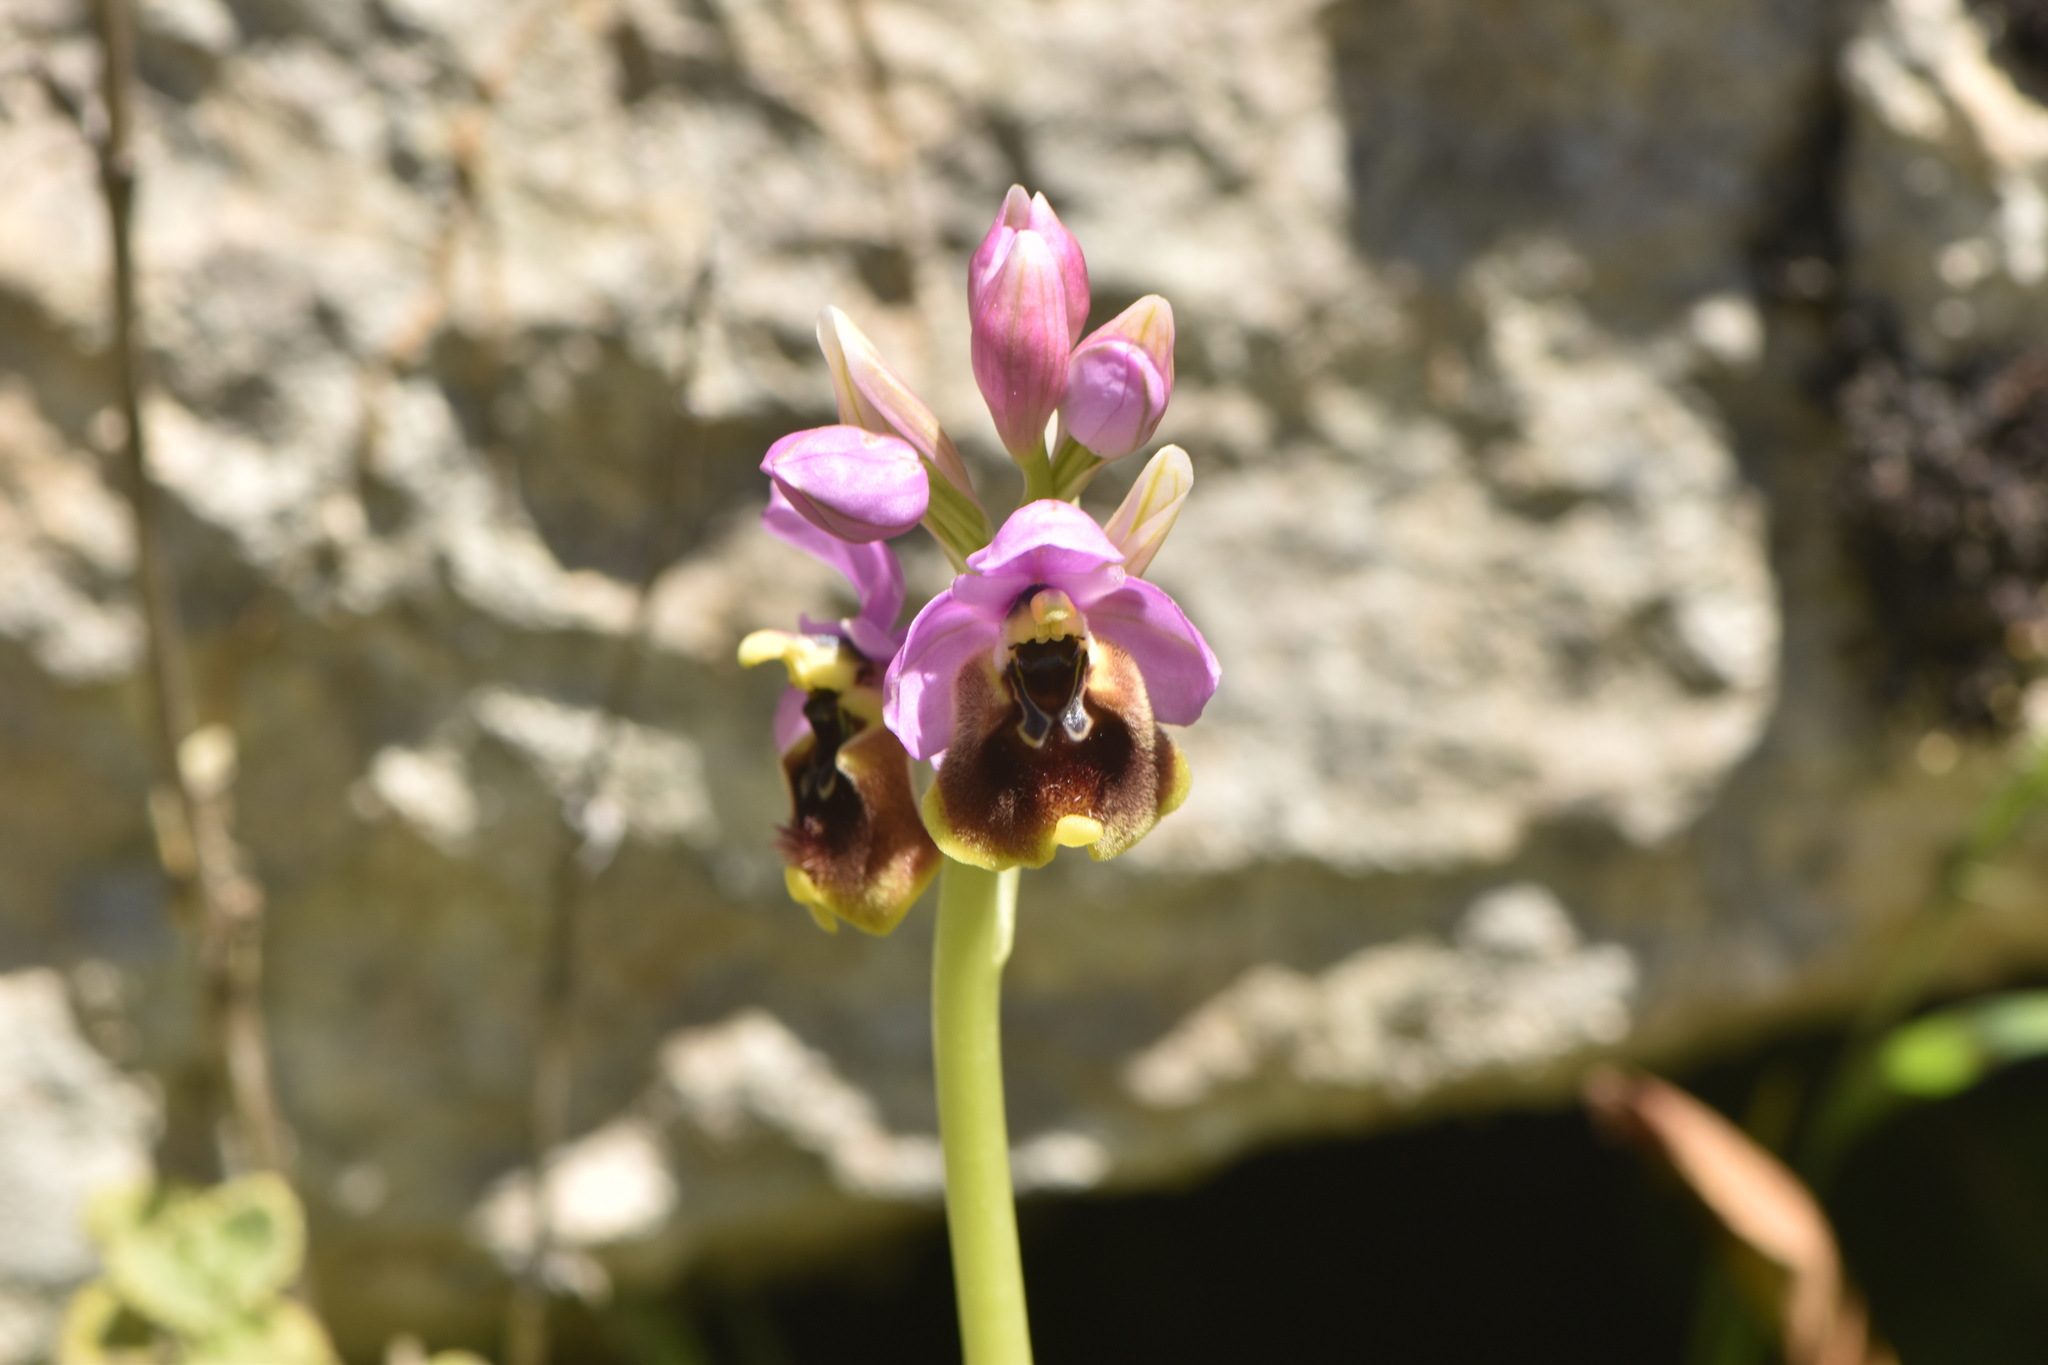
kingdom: Plantae
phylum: Tracheophyta
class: Liliopsida
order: Asparagales
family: Orchidaceae
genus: Ophrys
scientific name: Ophrys tenthredinifera
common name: Sawfly orchid
